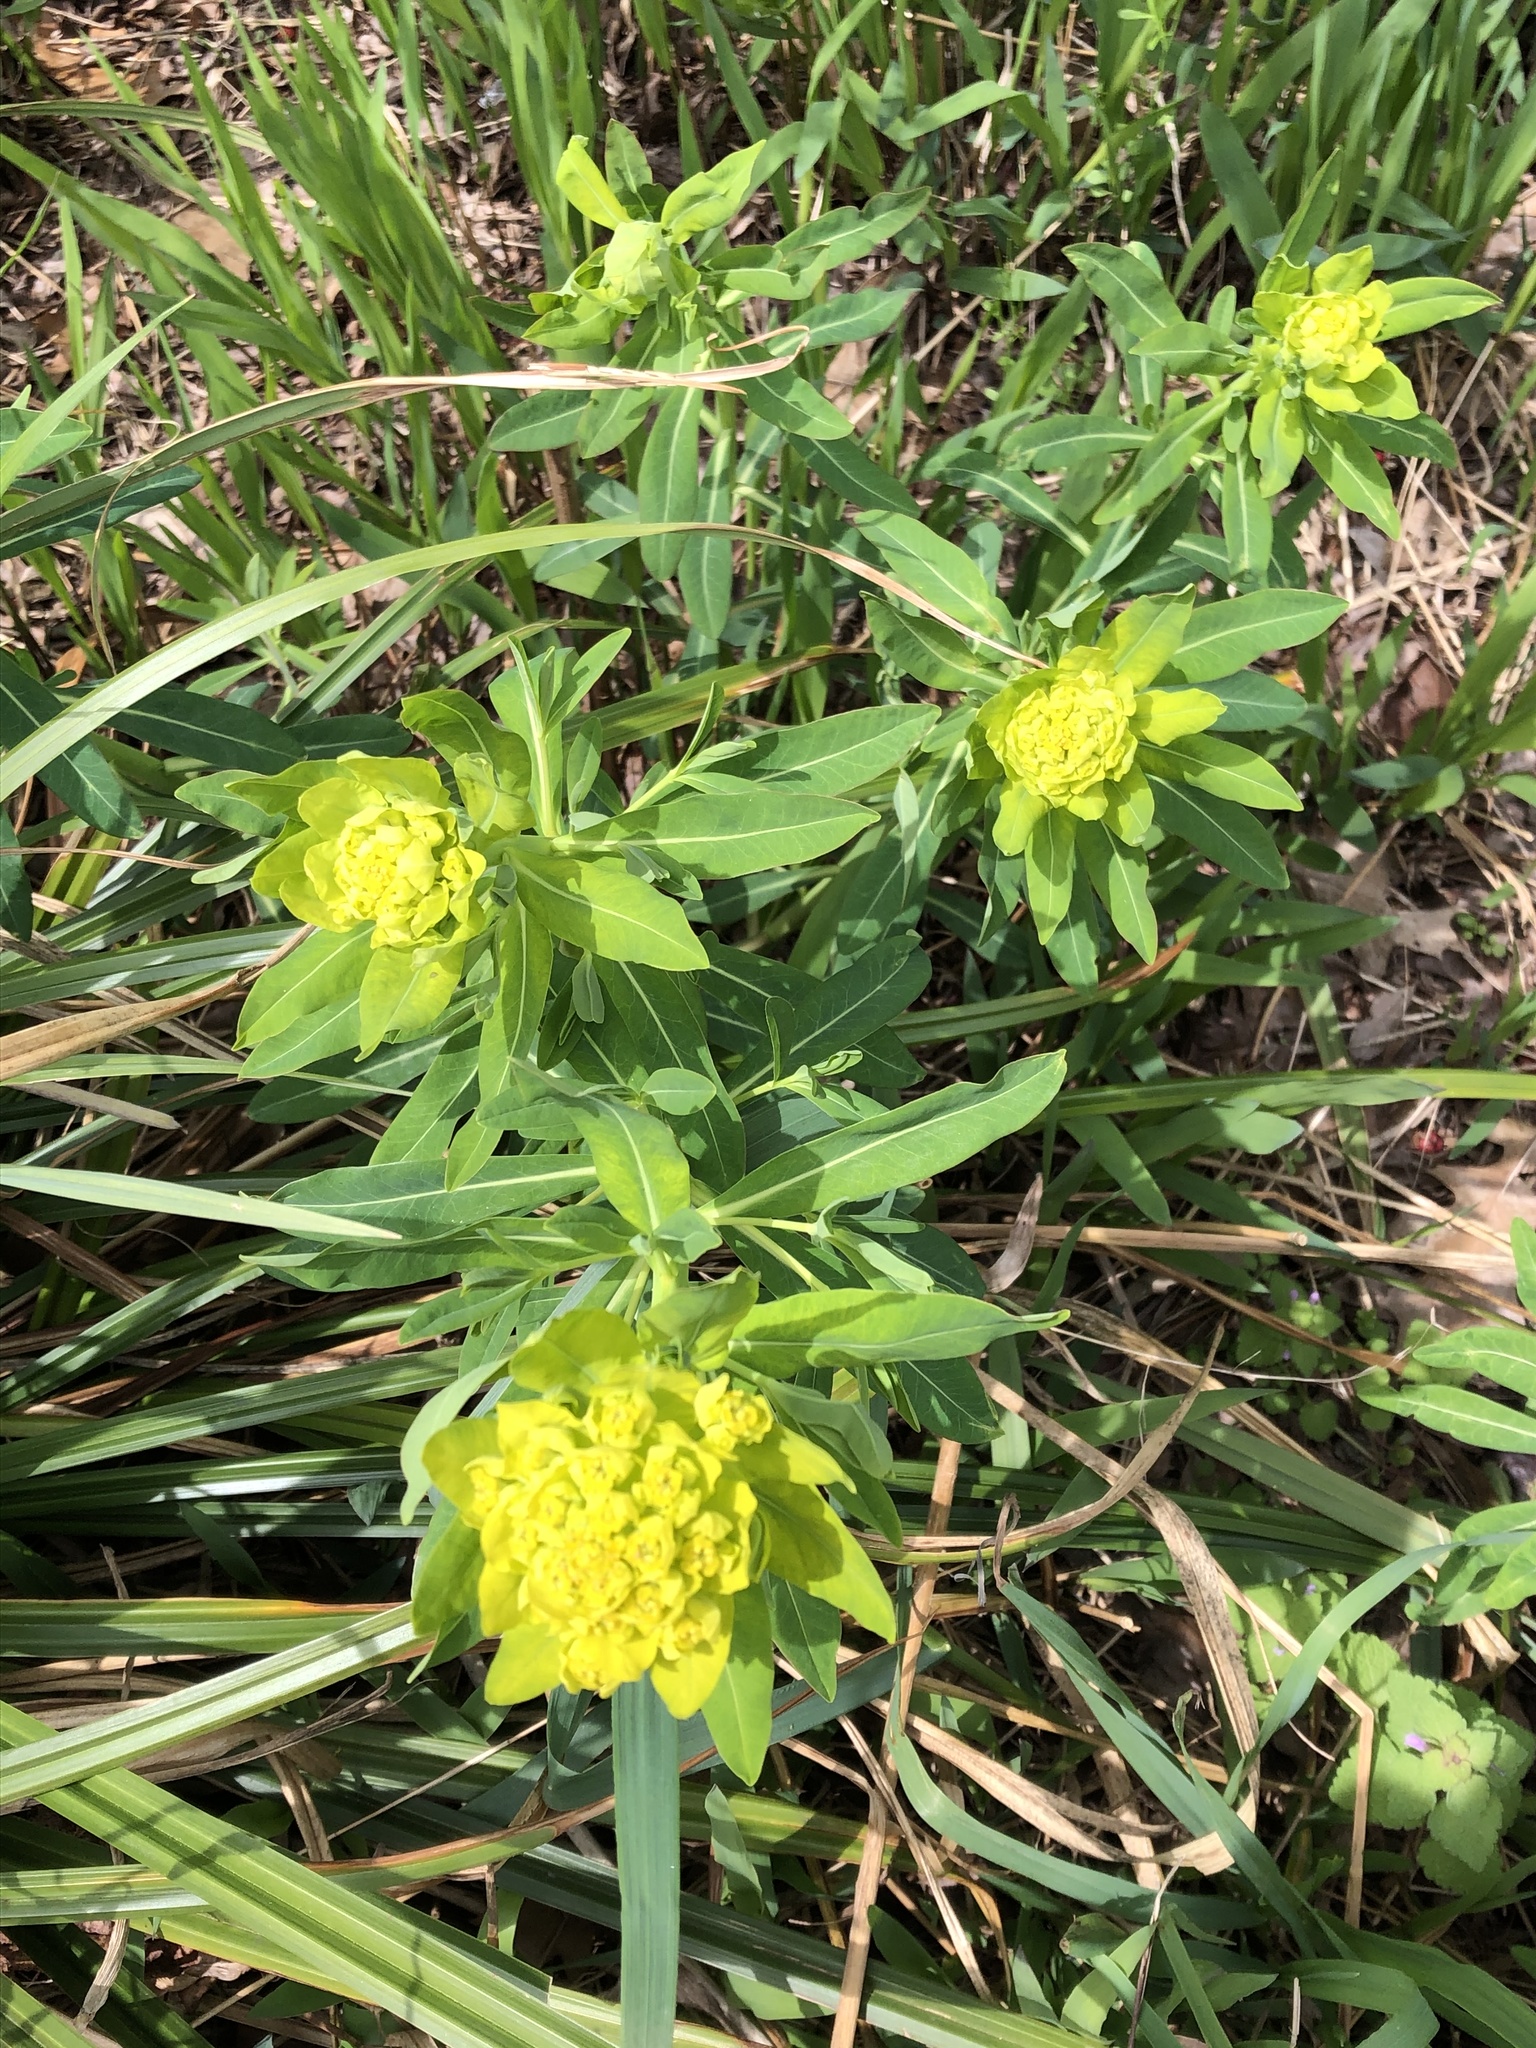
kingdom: Plantae
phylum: Tracheophyta
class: Magnoliopsida
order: Malpighiales
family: Euphorbiaceae
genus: Euphorbia
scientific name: Euphorbia palustris
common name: Marsh spurge
